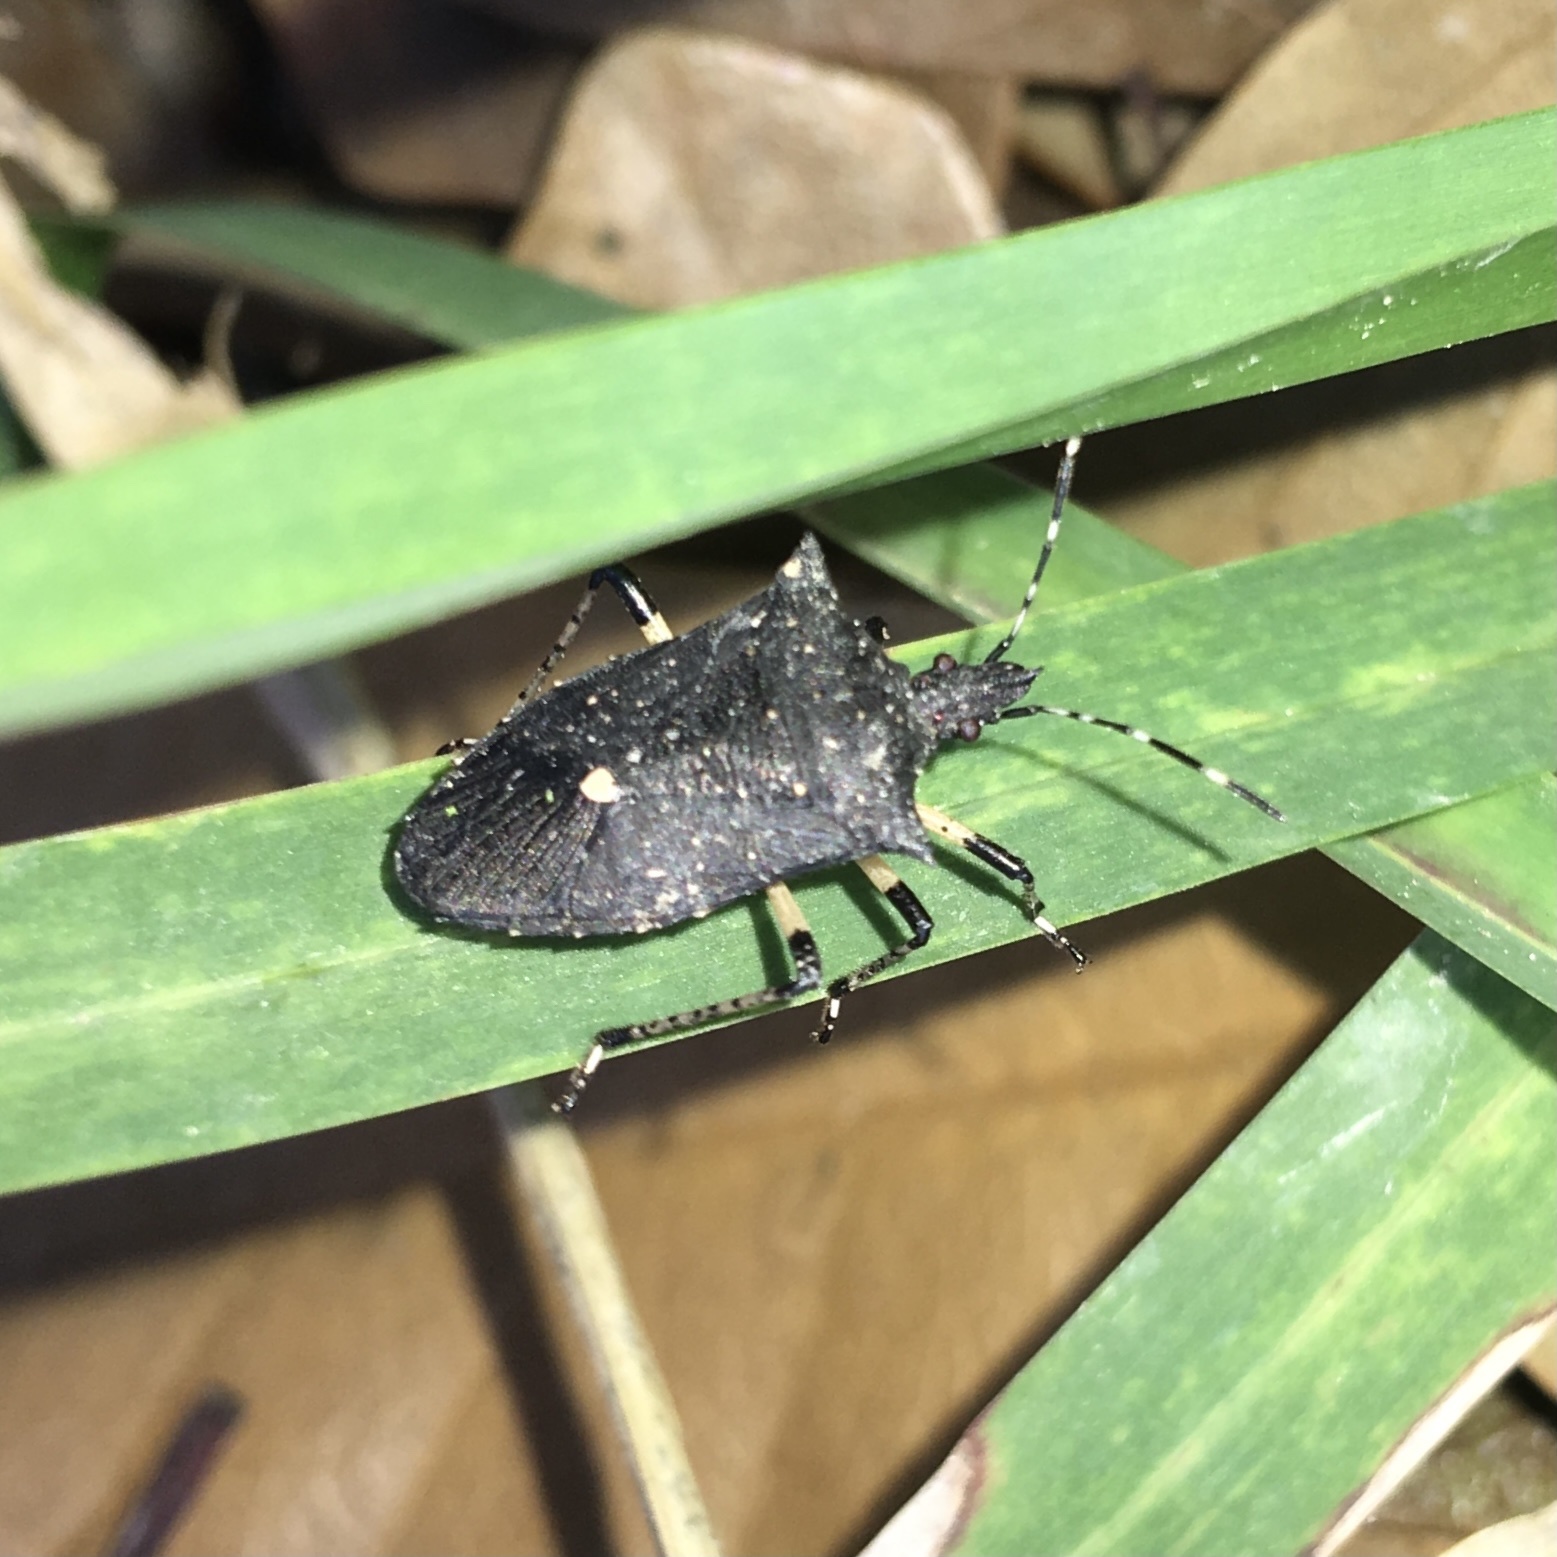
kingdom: Animalia
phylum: Arthropoda
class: Insecta
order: Hemiptera
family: Pentatomidae
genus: Proxys
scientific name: Proxys punctulatus
